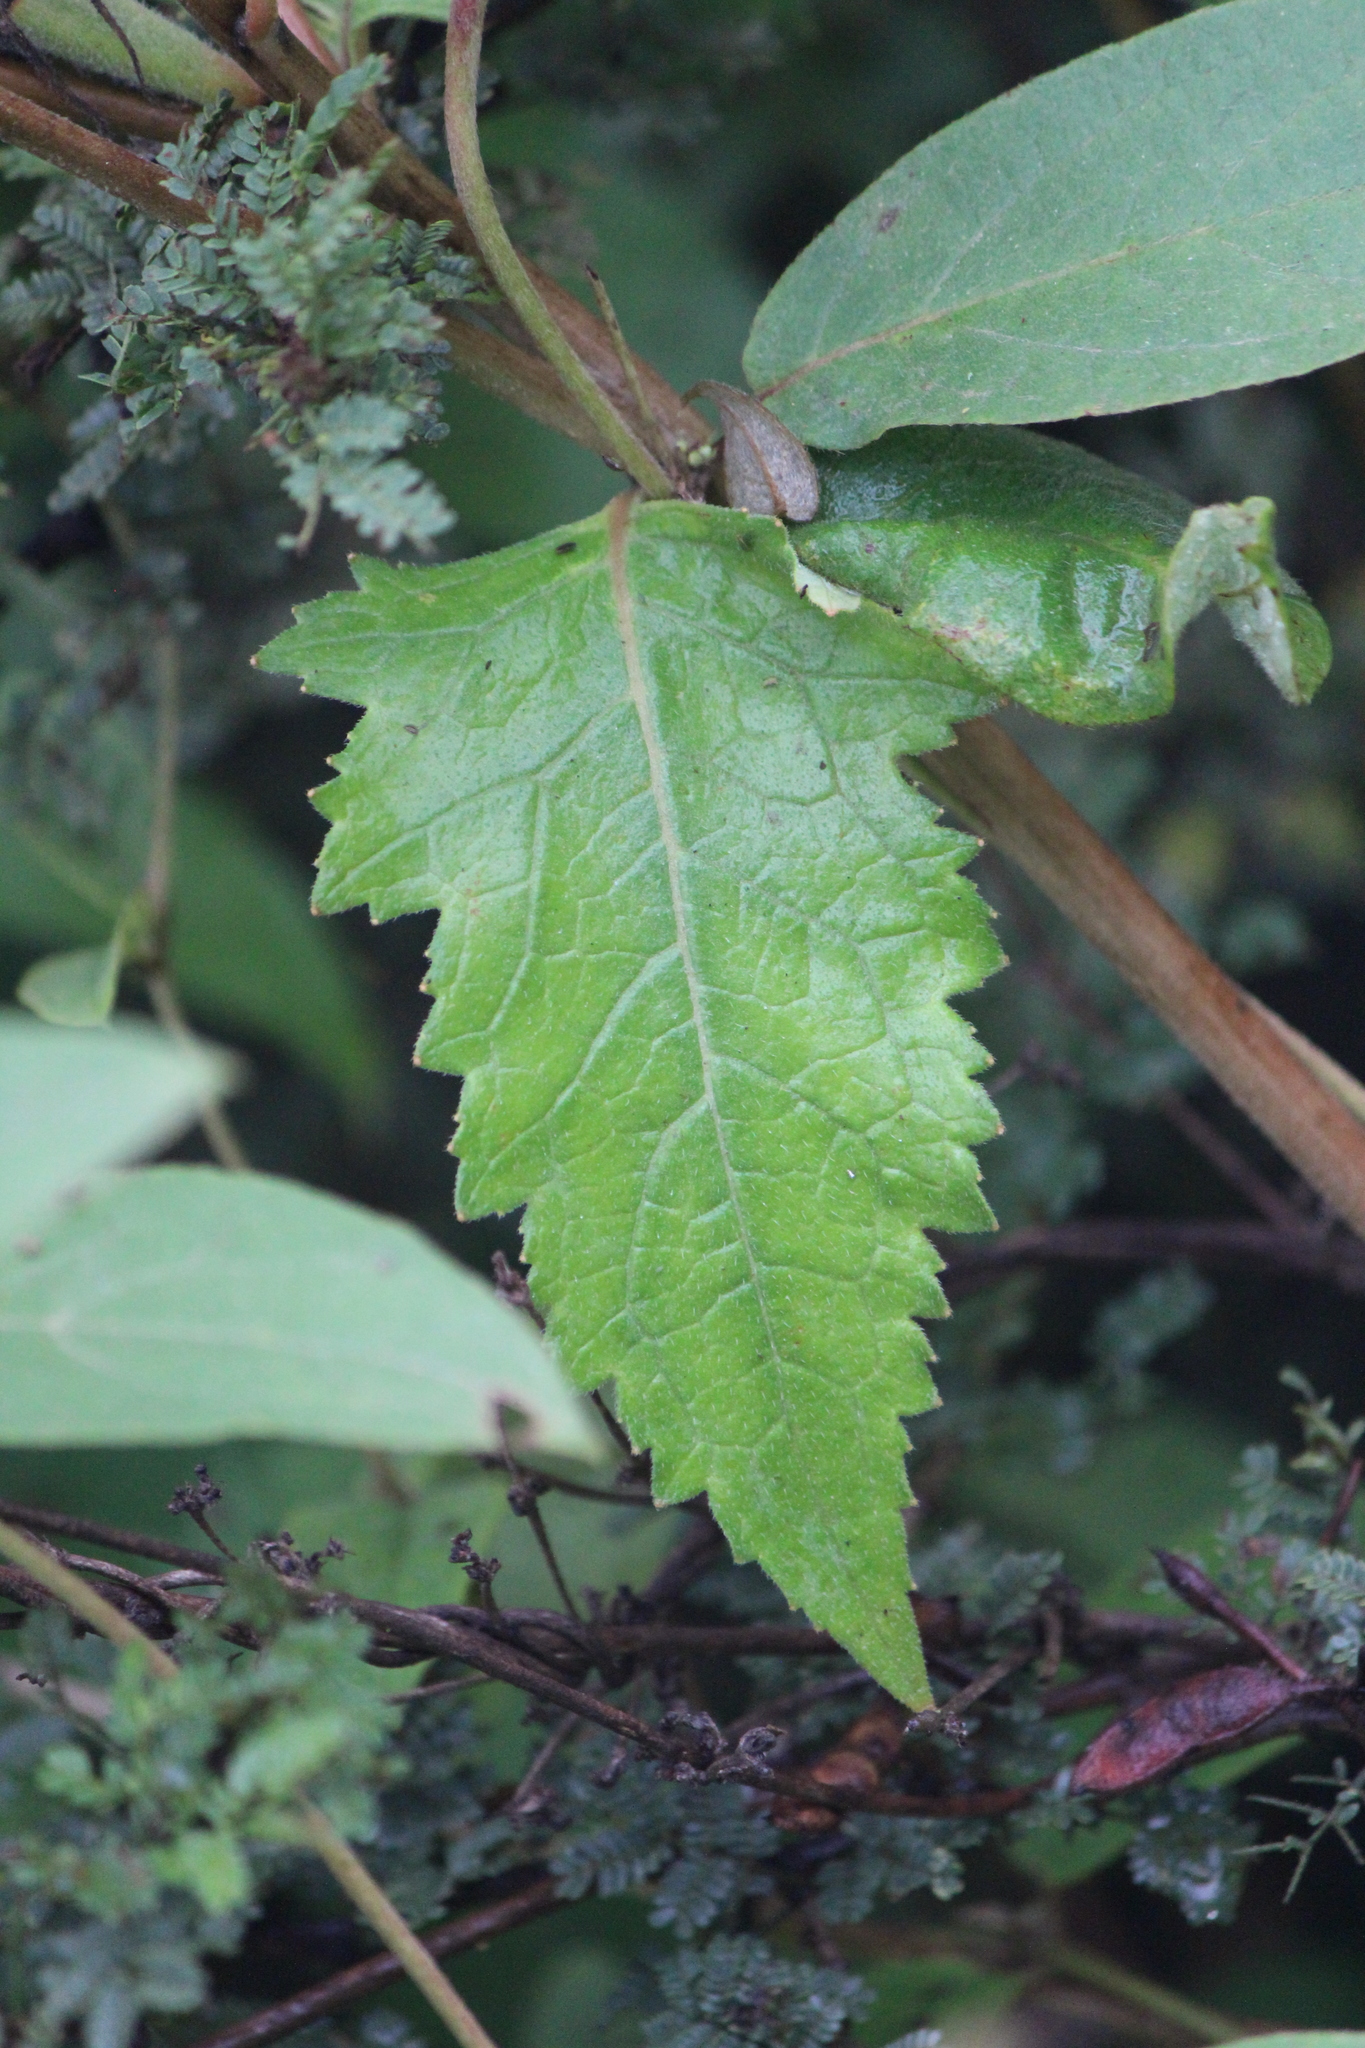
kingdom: Plantae
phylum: Tracheophyta
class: Magnoliopsida
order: Cornales
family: Loasaceae
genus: Mentzelia
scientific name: Mentzelia hispida
